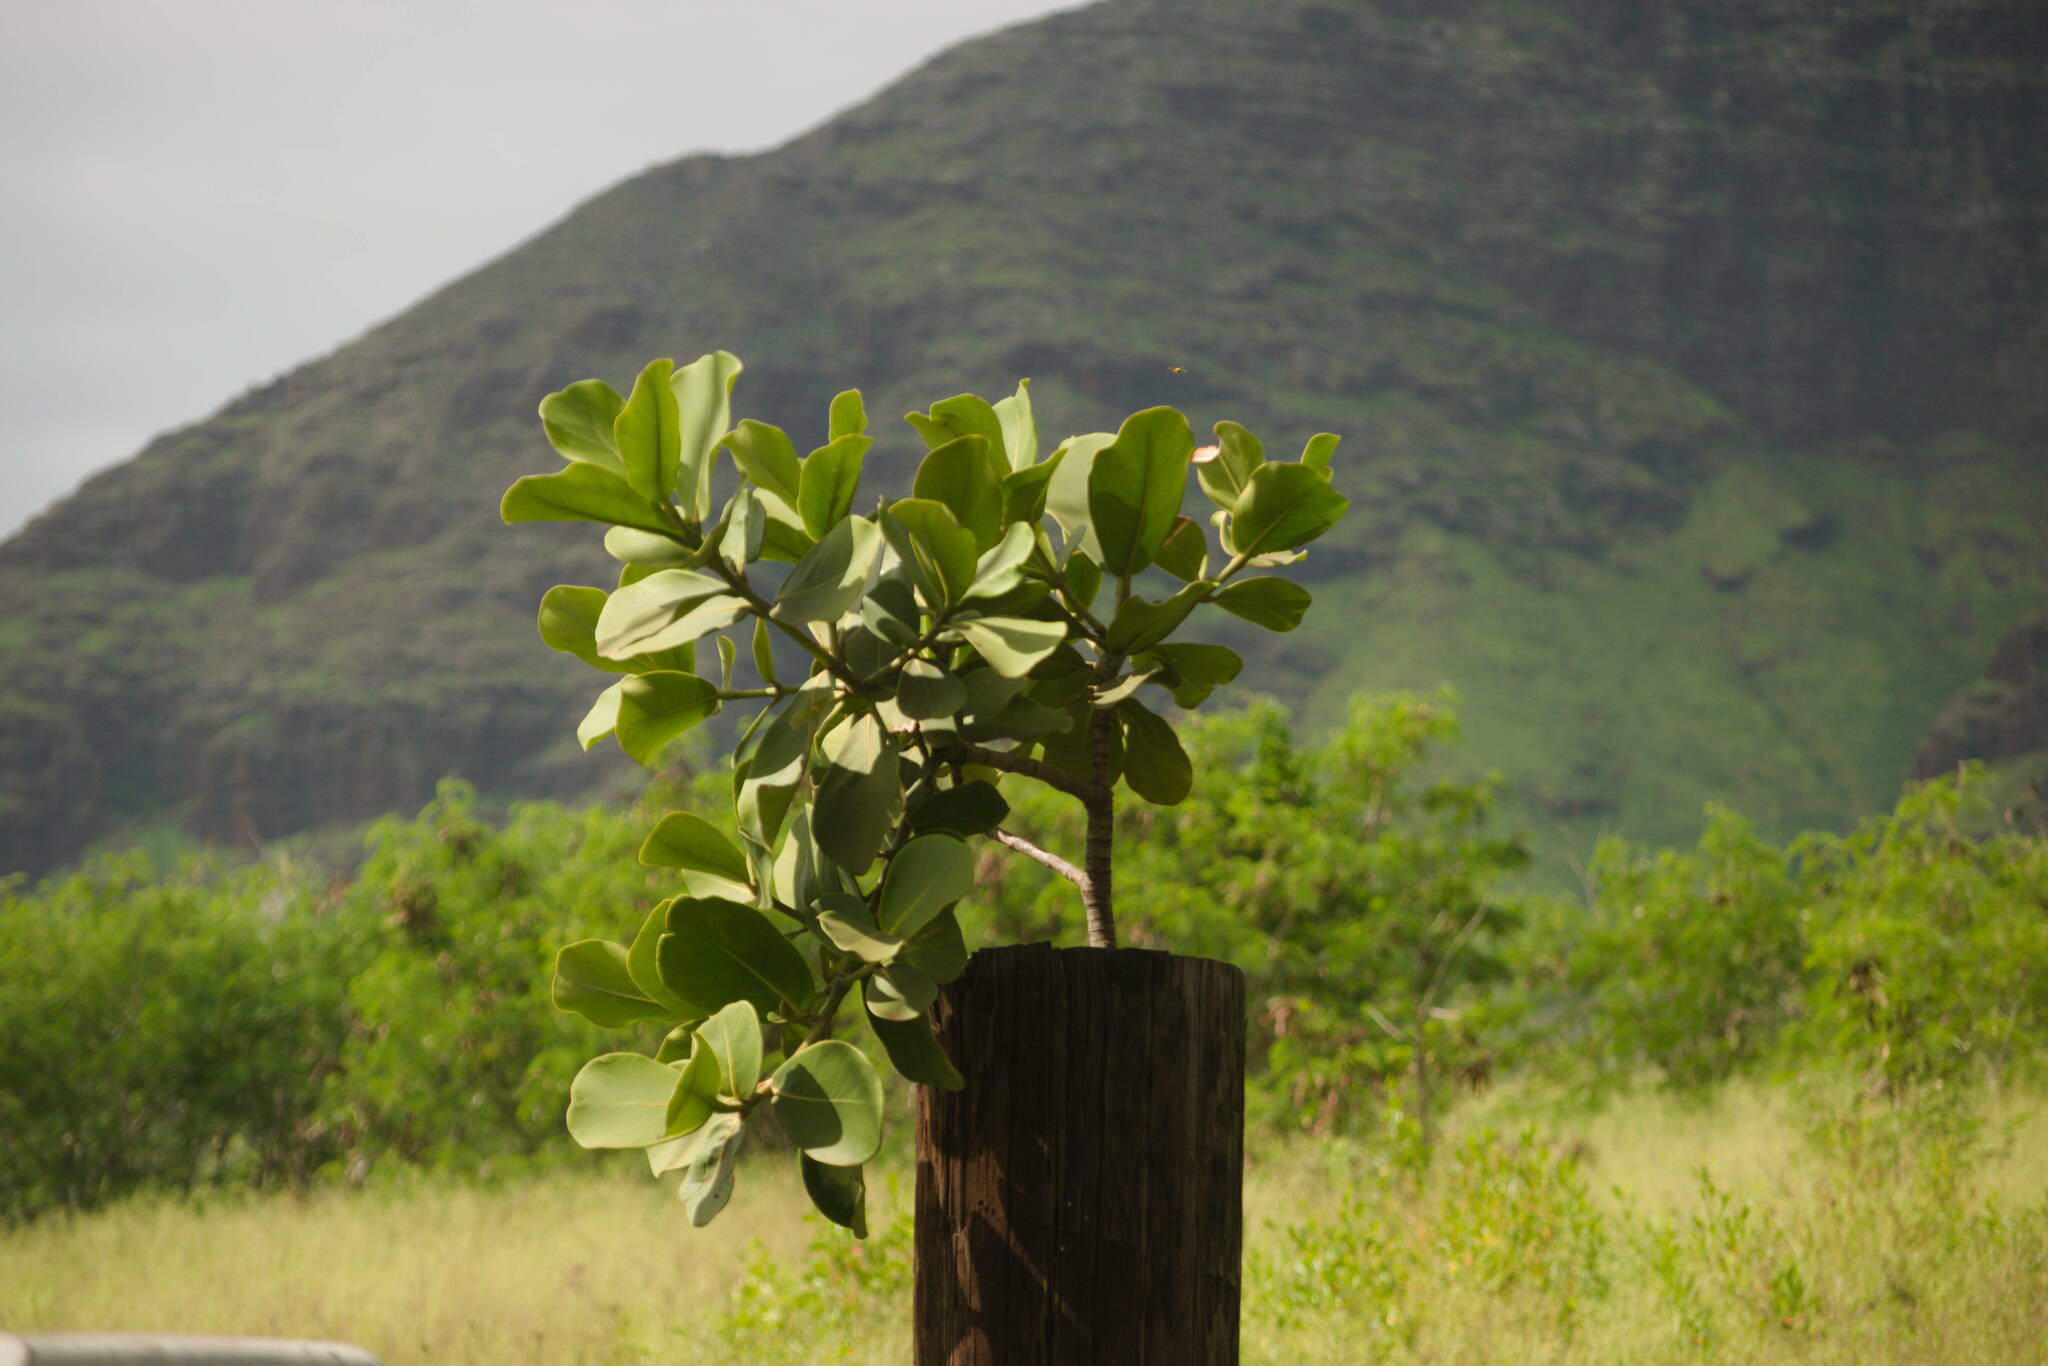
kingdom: Plantae
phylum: Tracheophyta
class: Magnoliopsida
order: Malpighiales
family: Clusiaceae
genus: Clusia
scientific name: Clusia rosea
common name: Scotch attorney
